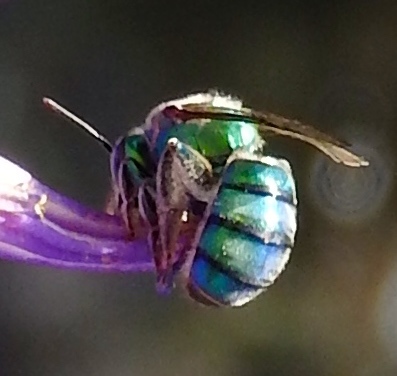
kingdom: Animalia
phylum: Arthropoda
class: Insecta
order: Hymenoptera
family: Halictidae
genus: Pseudaugochlora
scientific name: Pseudaugochlora graminea
